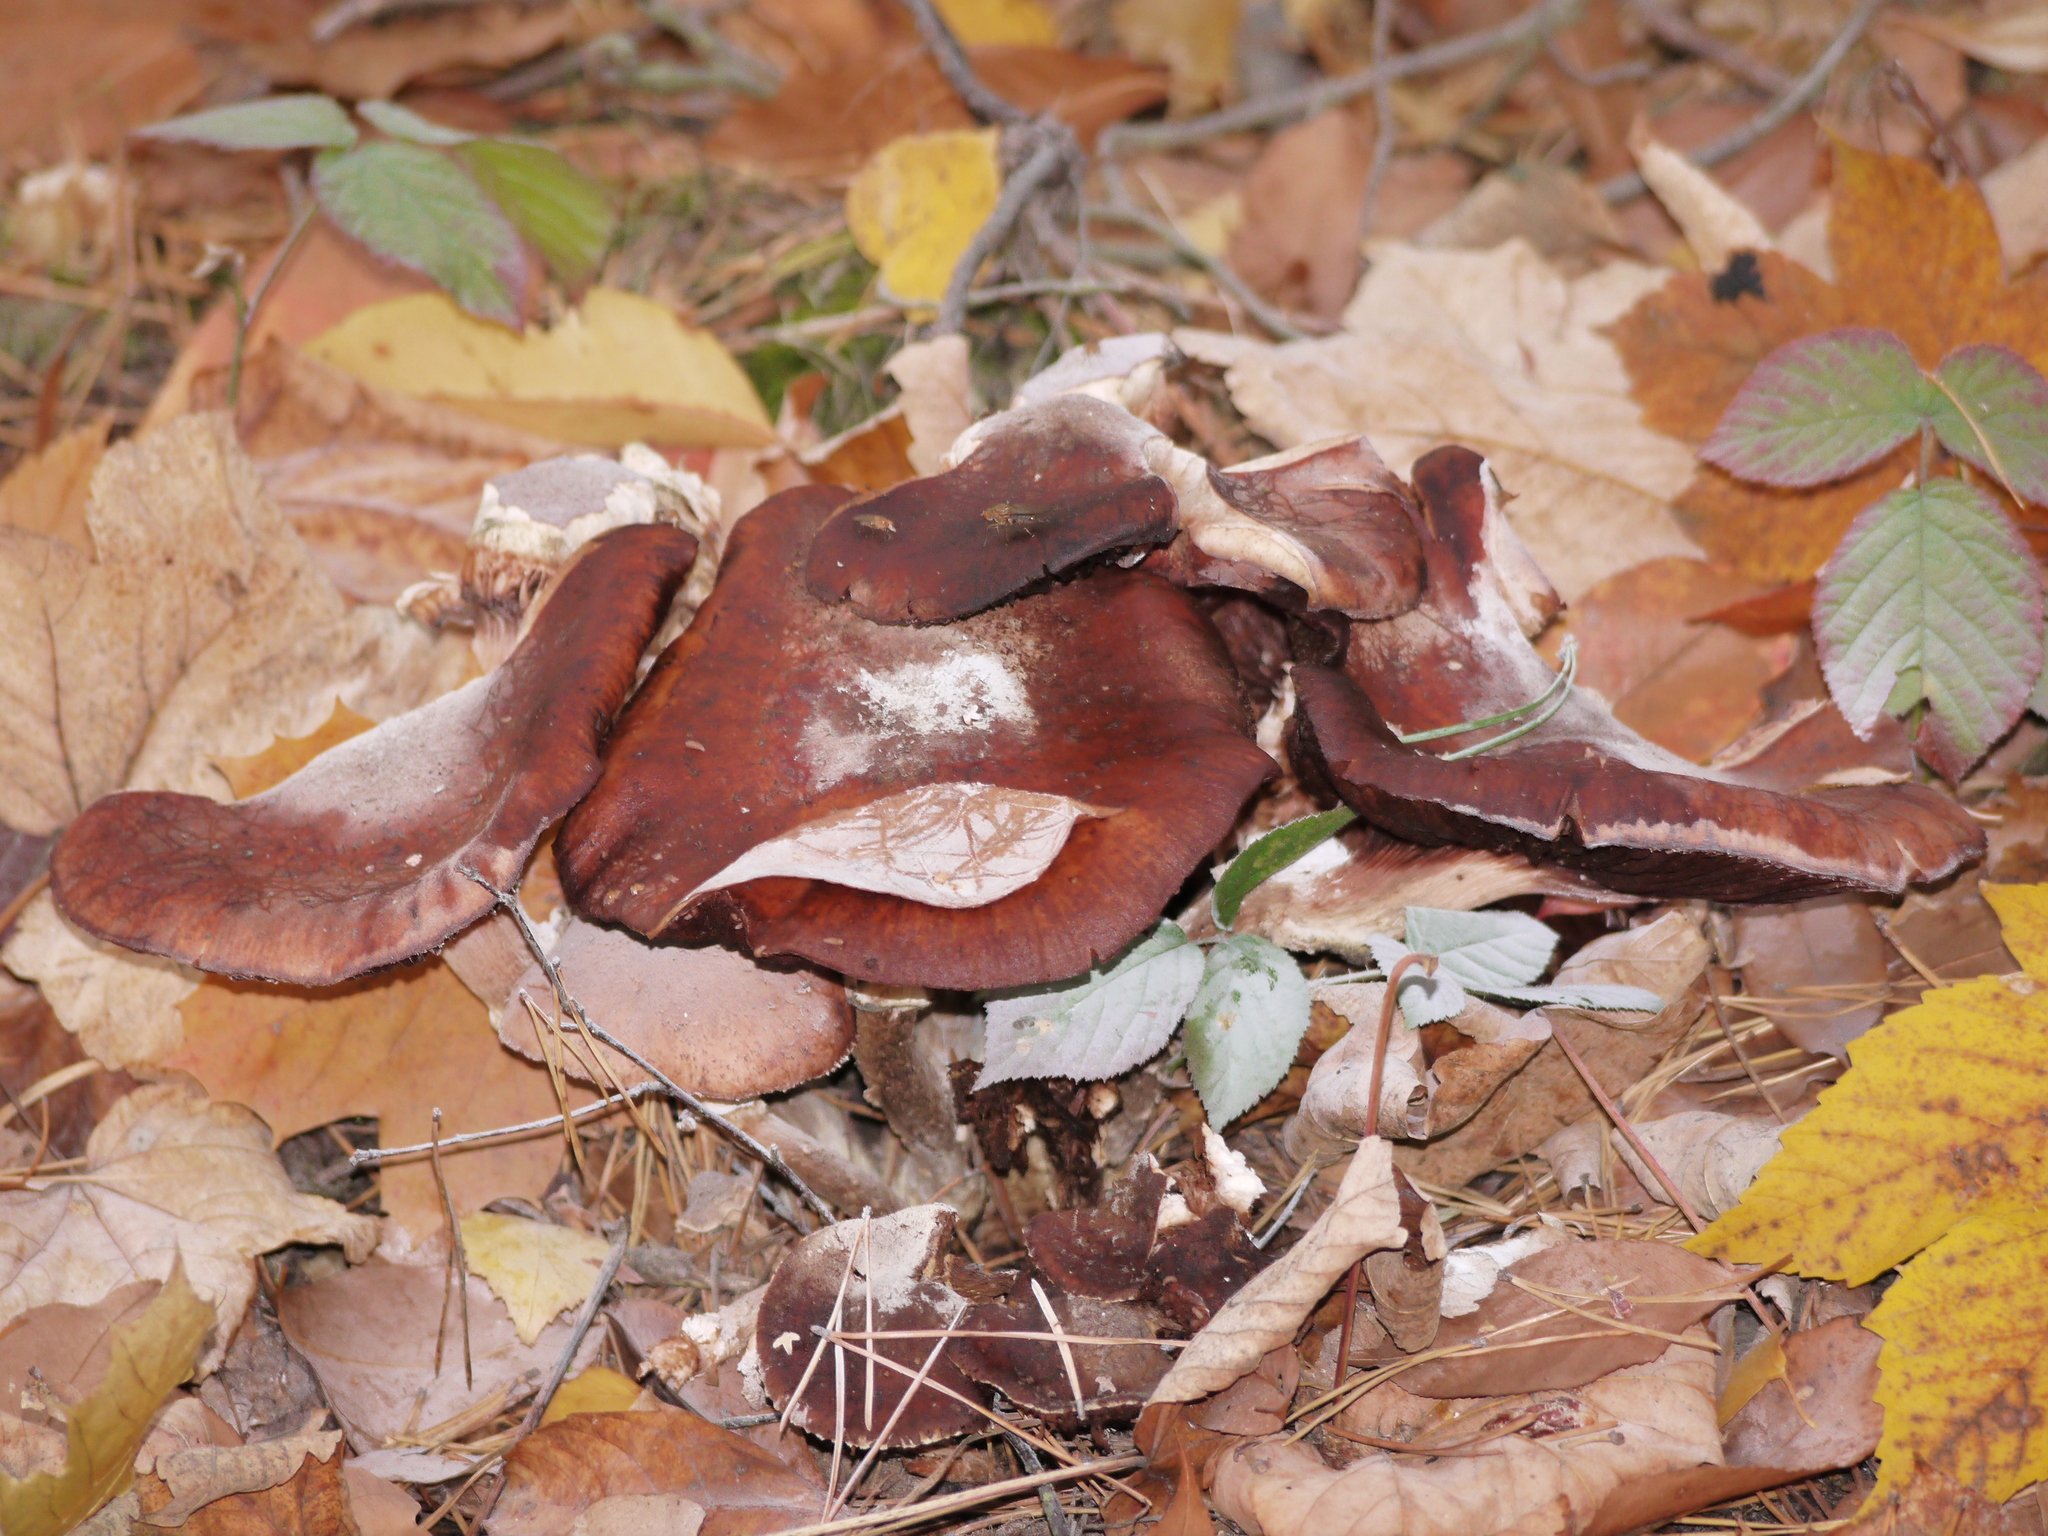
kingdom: Fungi
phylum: Basidiomycota
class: Agaricomycetes
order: Agaricales
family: Physalacriaceae
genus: Armillaria
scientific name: Armillaria mellea
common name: Honey fungus
